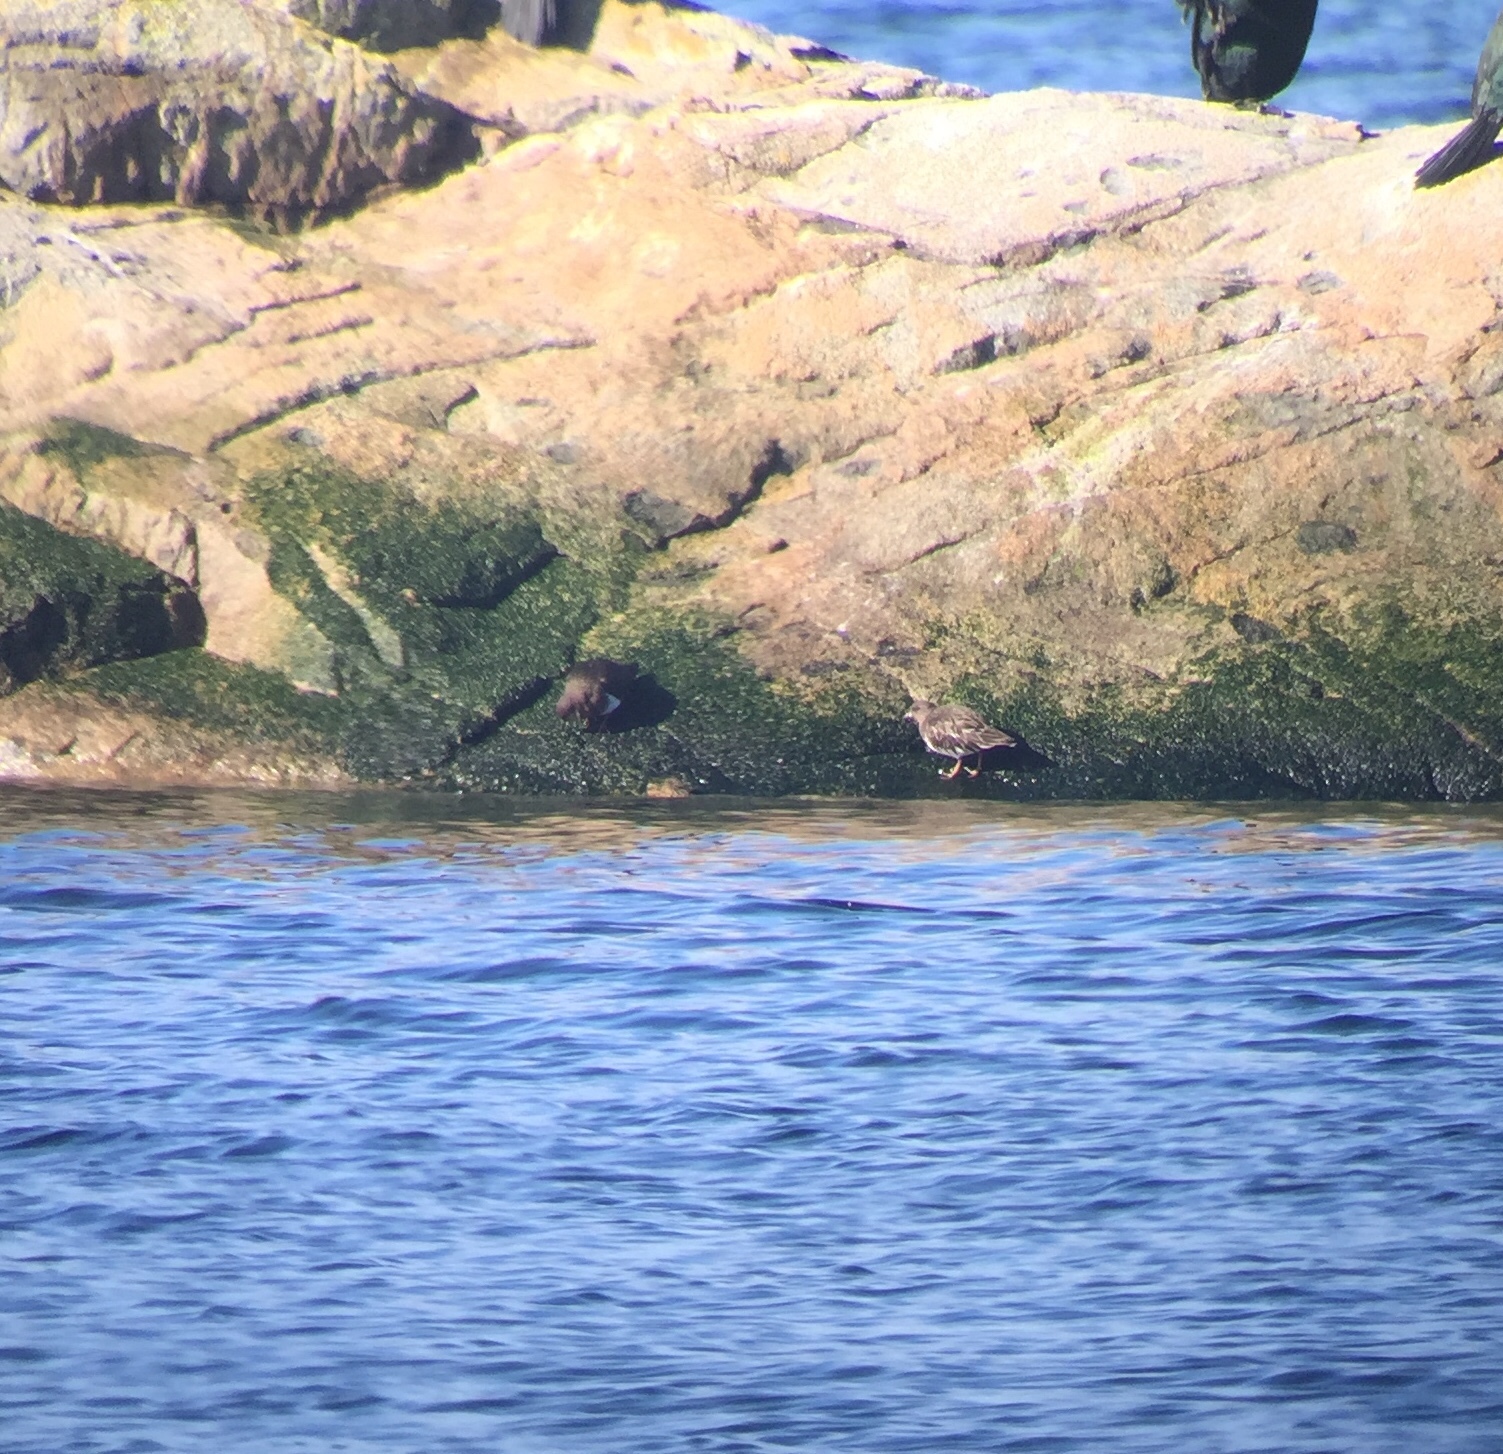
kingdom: Animalia
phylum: Chordata
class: Aves
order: Charadriiformes
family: Scolopacidae
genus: Arenaria
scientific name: Arenaria melanocephala
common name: Black turnstone
